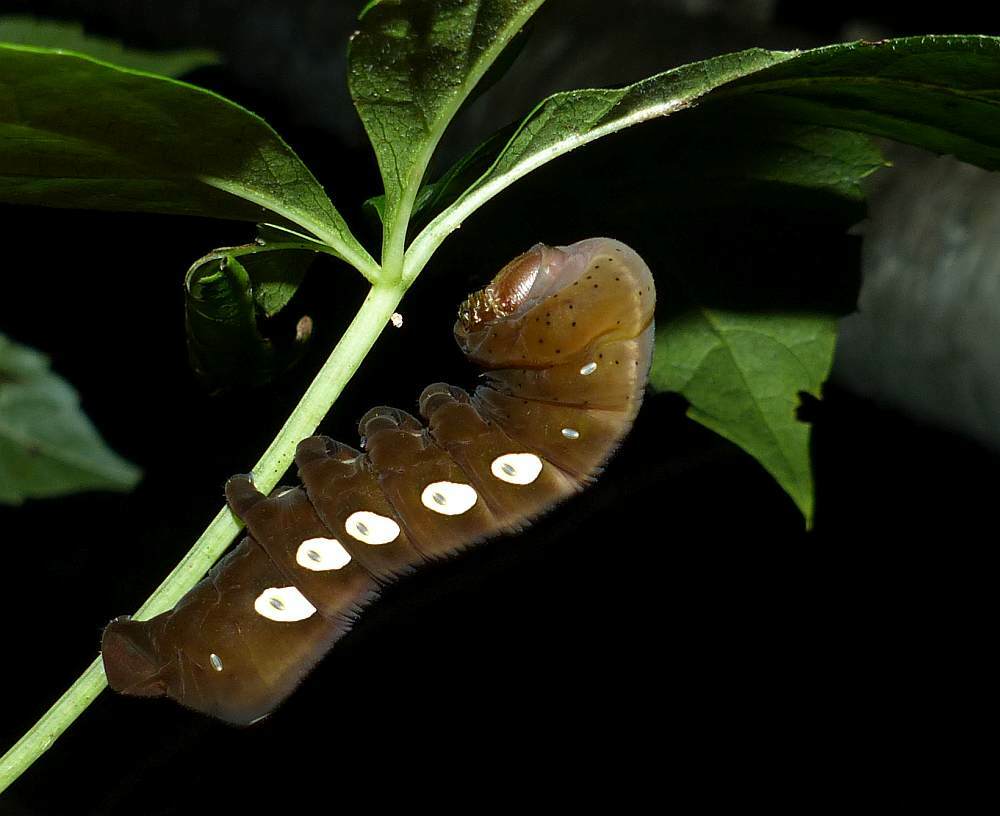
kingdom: Animalia
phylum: Arthropoda
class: Insecta
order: Lepidoptera
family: Sphingidae
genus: Eumorpha
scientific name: Eumorpha pandorus
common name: Pandora sphinx
